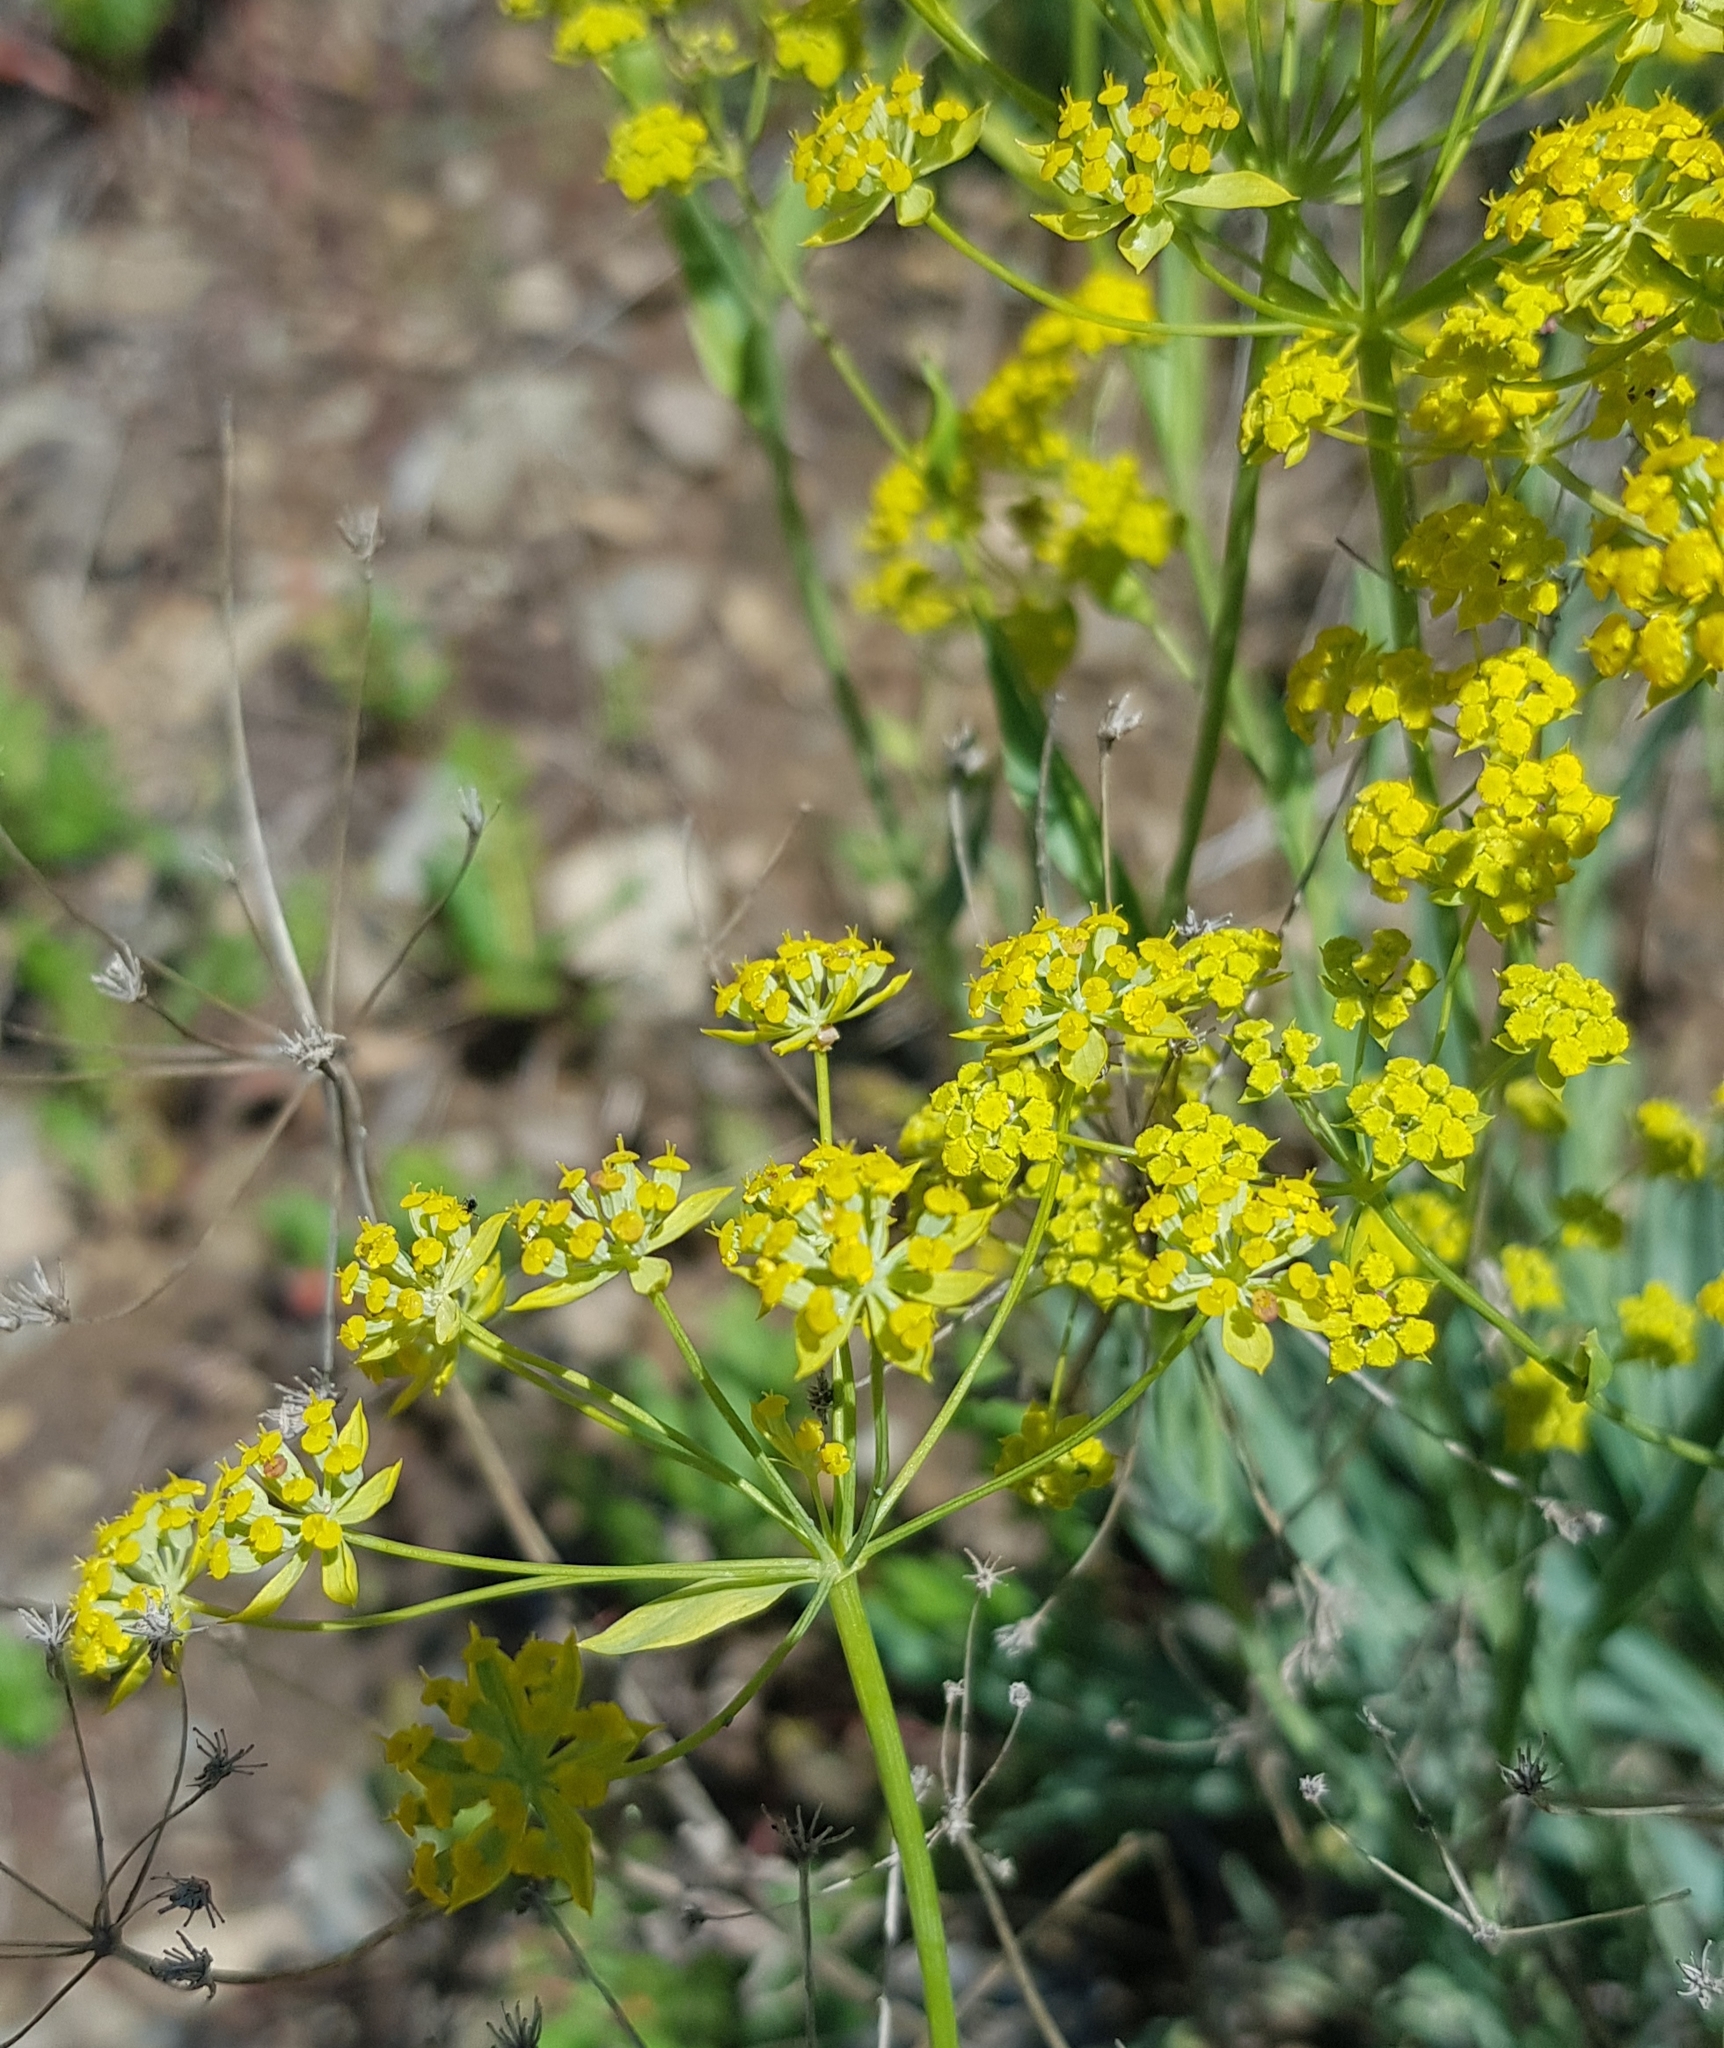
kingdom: Plantae
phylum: Tracheophyta
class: Magnoliopsida
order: Apiales
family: Apiaceae
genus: Bupleurum
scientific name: Bupleurum sibiricum
